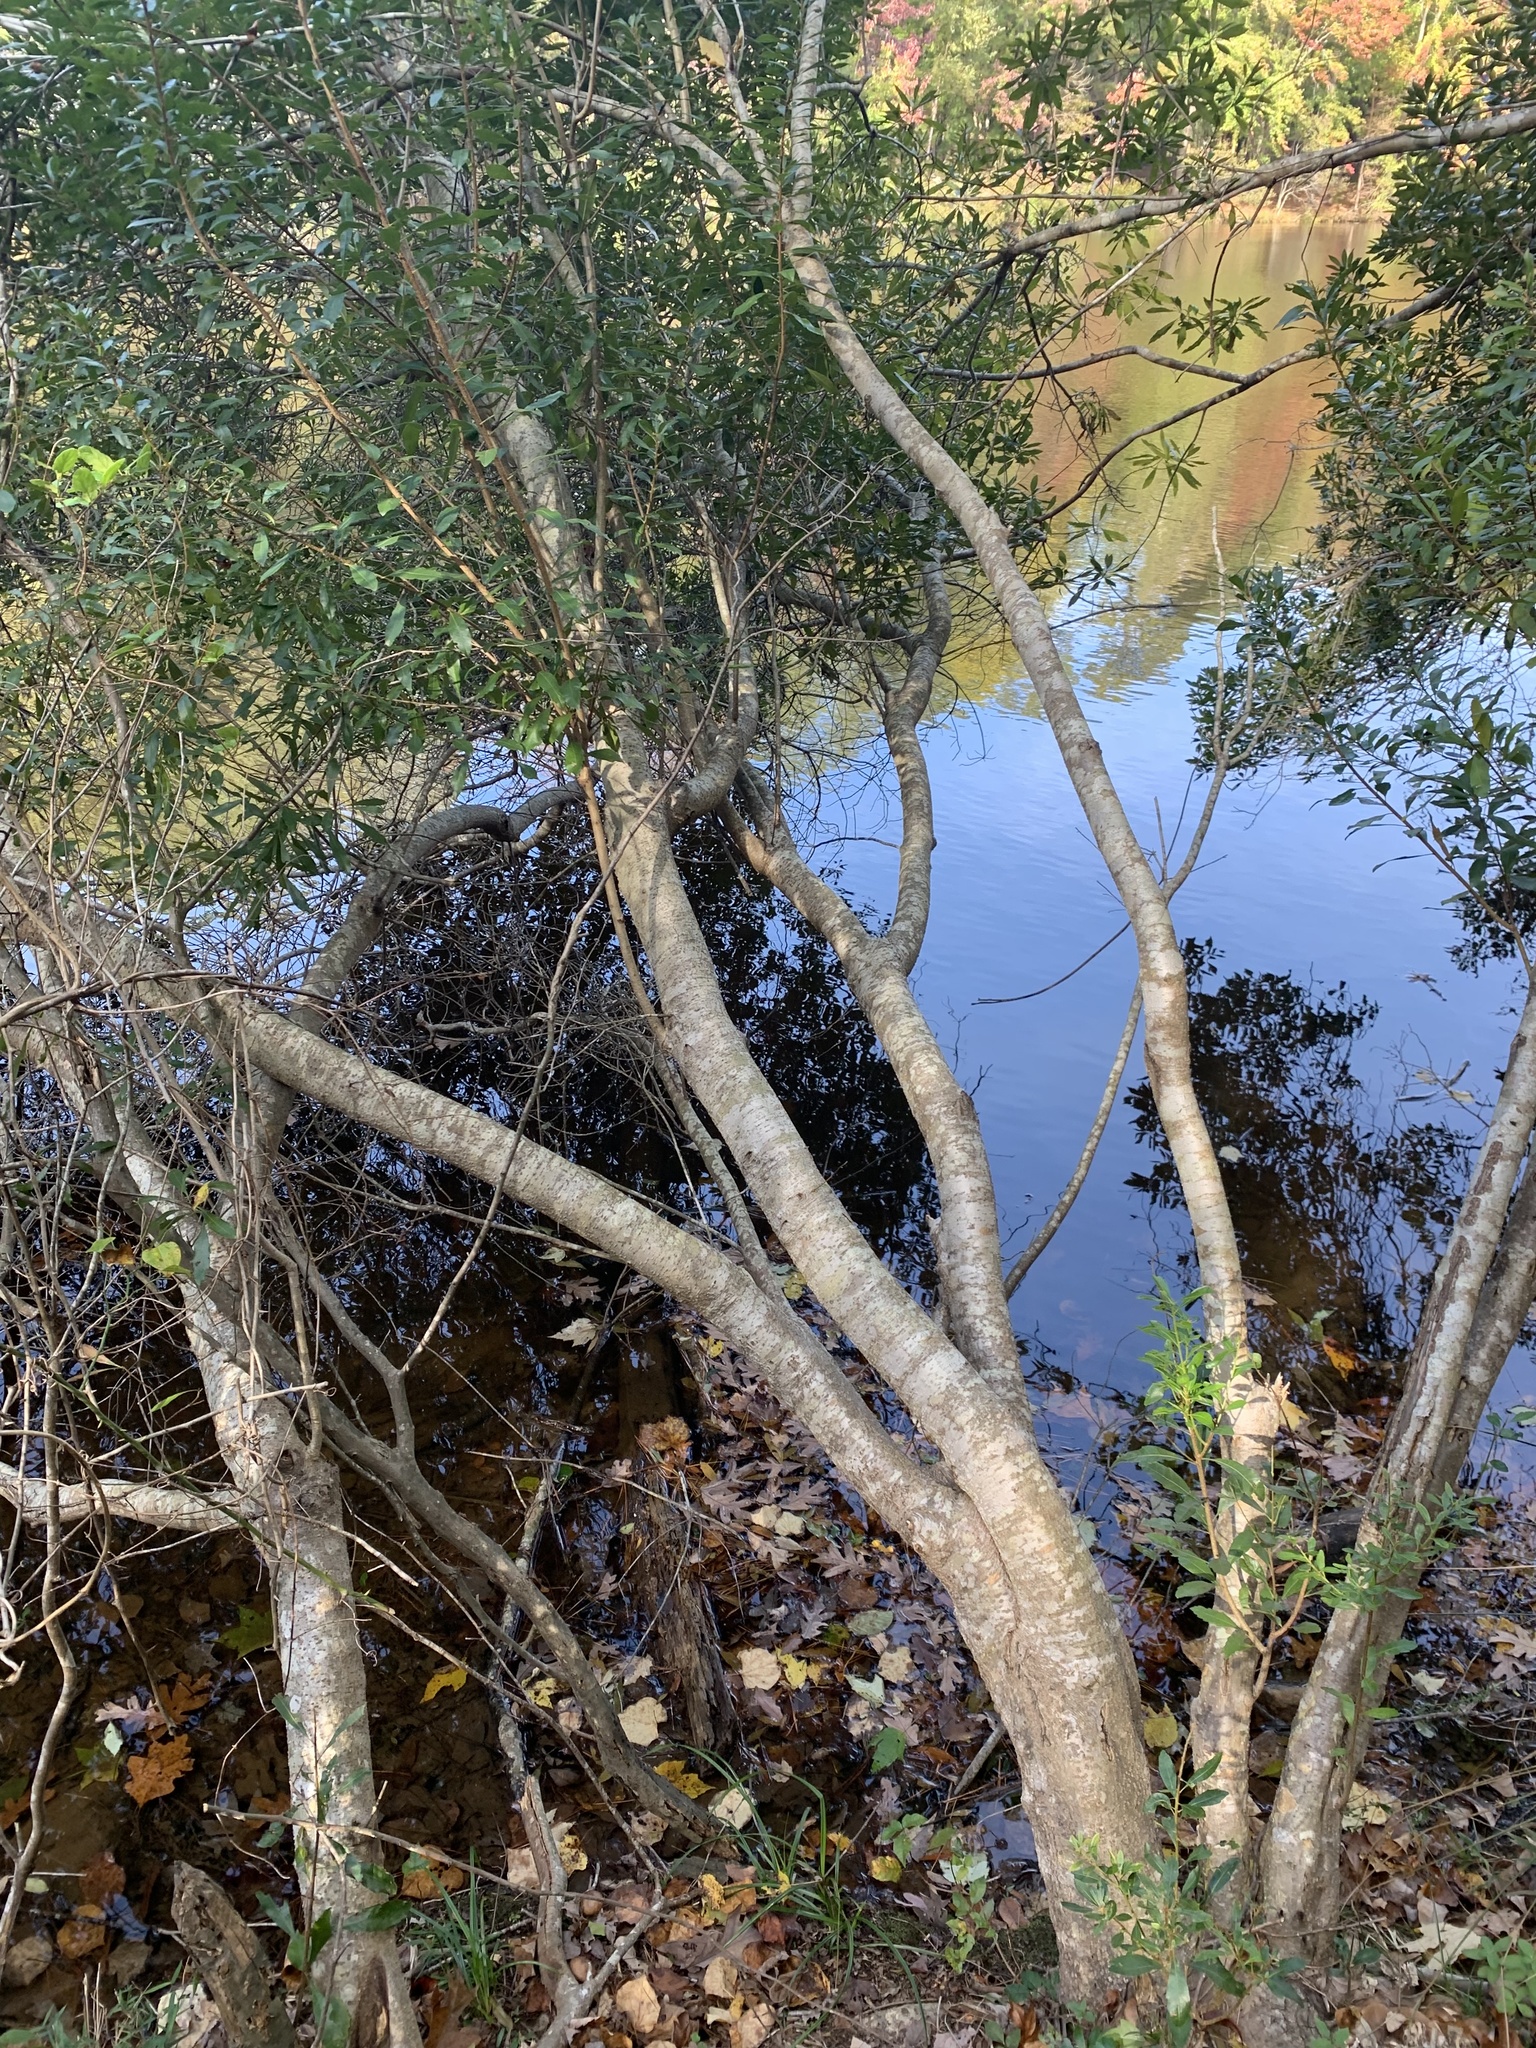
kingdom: Plantae
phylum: Tracheophyta
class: Magnoliopsida
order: Fagales
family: Myricaceae
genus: Morella
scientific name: Morella cerifera
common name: Wax myrtle
